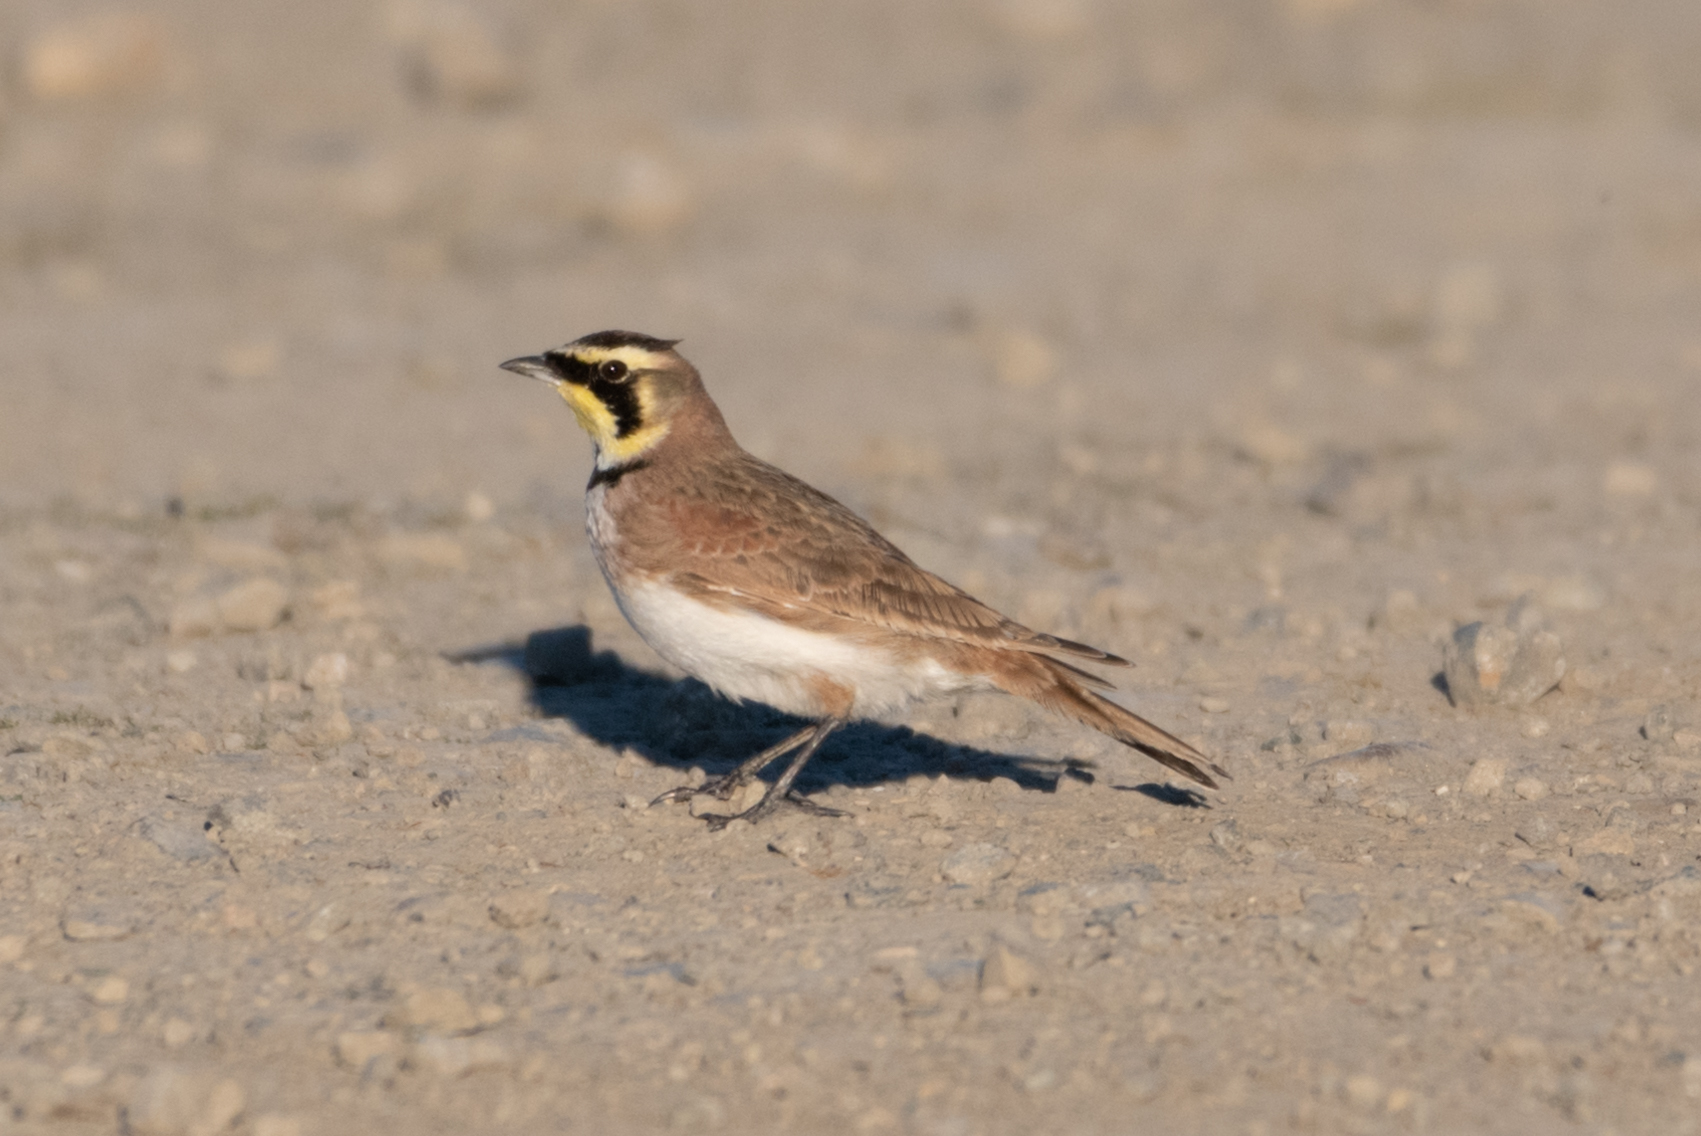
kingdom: Animalia
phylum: Chordata
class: Aves
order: Passeriformes
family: Alaudidae
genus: Eremophila
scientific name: Eremophila alpestris
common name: Horned lark
